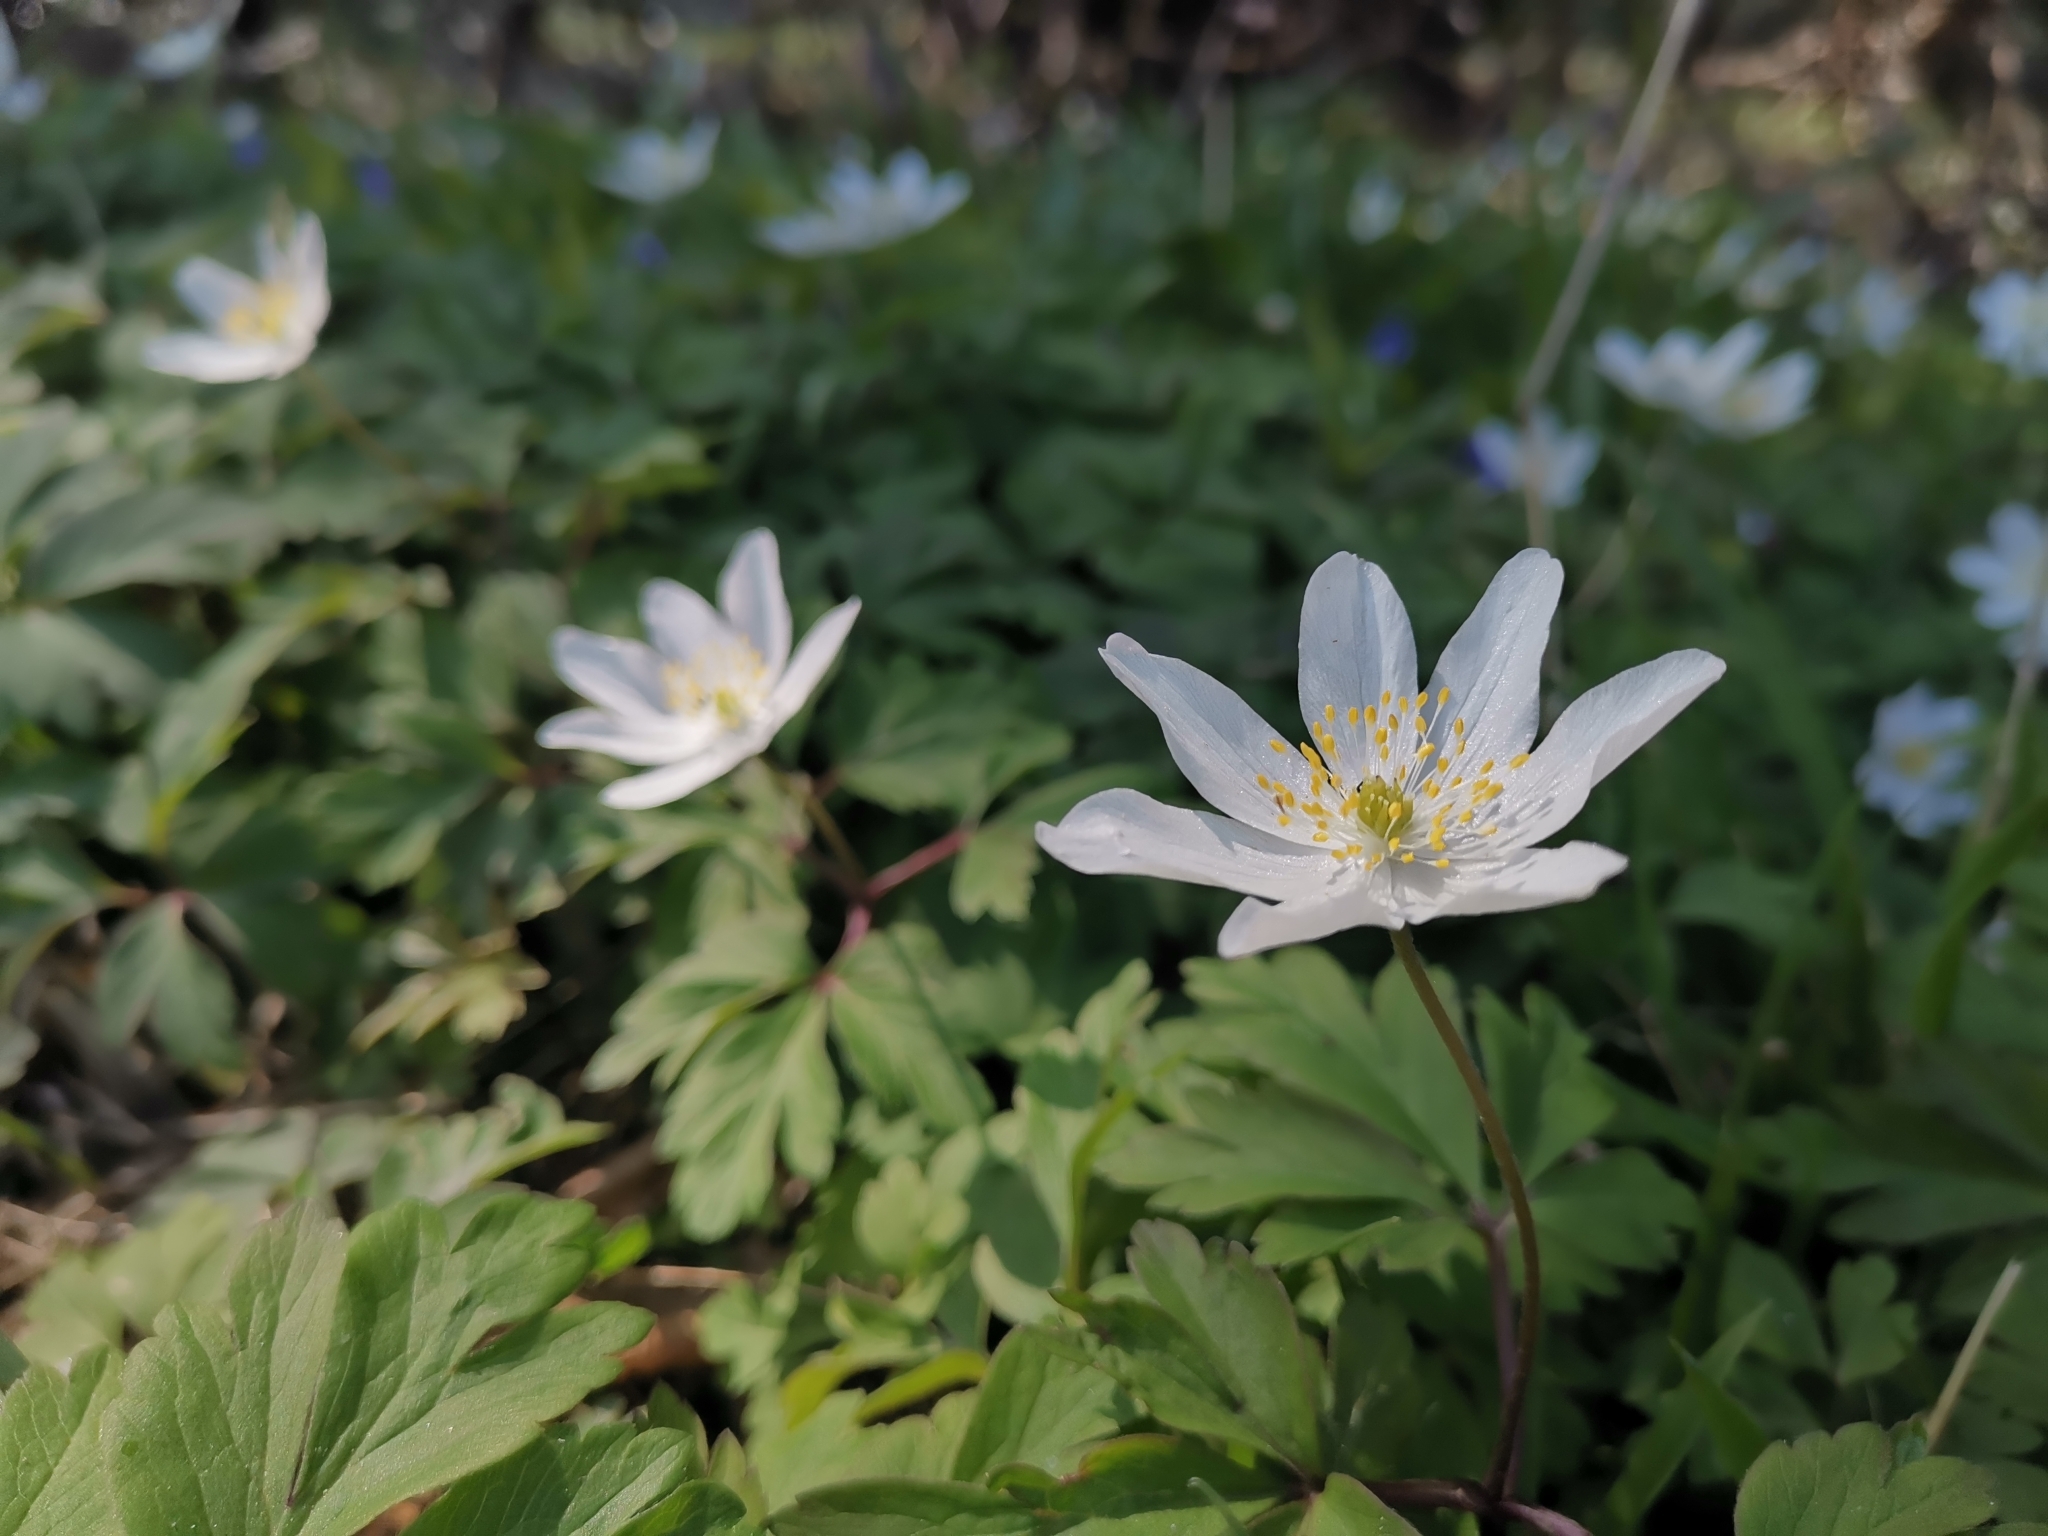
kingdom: Plantae
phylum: Tracheophyta
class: Magnoliopsida
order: Ranunculales
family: Ranunculaceae
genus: Anemone
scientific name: Anemone nemorosa
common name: Wood anemone
